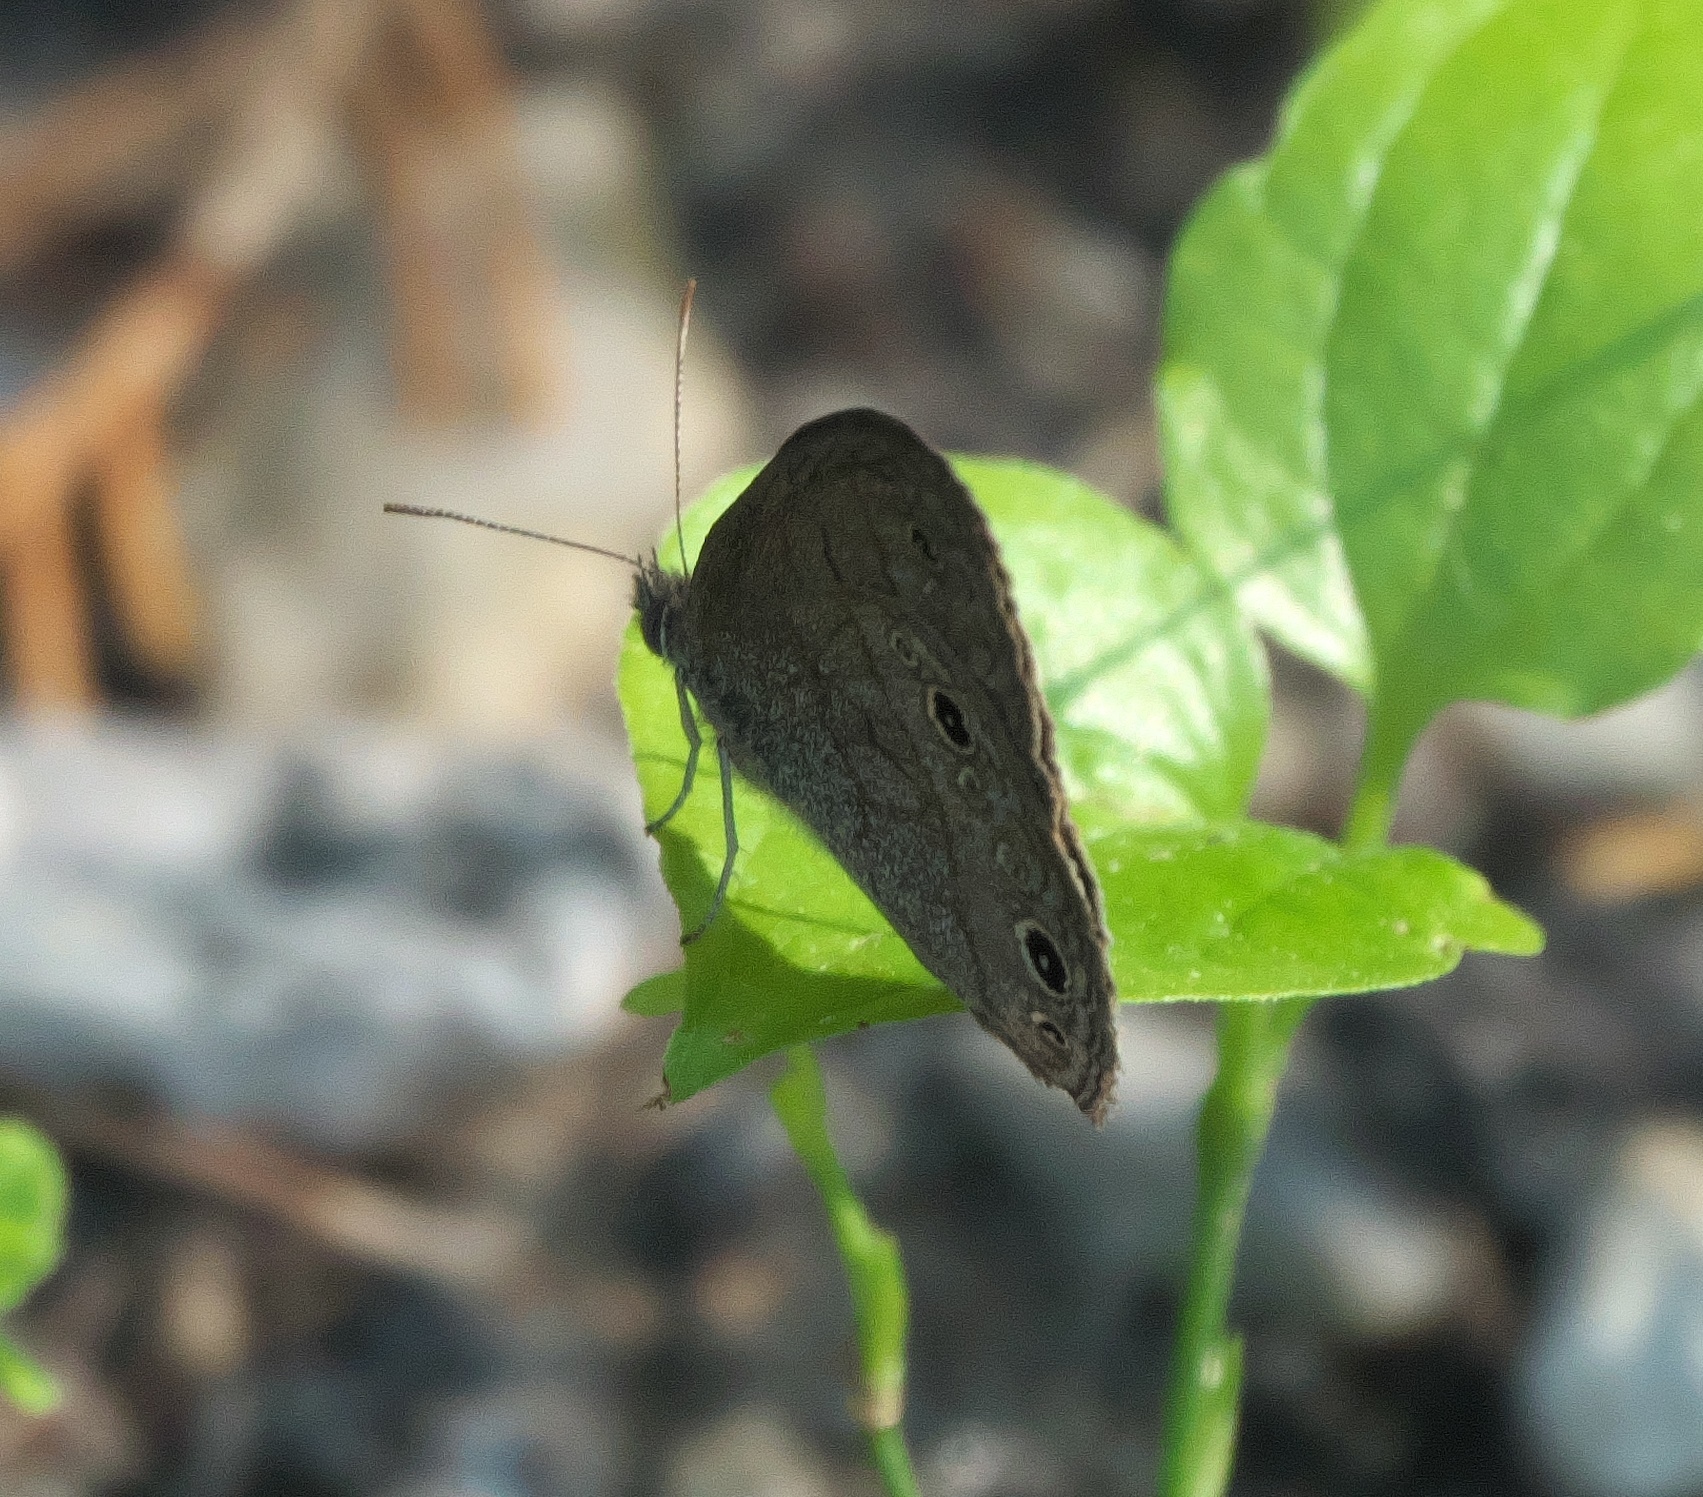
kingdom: Animalia
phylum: Arthropoda
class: Insecta
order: Lepidoptera
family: Nymphalidae
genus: Hermeuptychia
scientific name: Hermeuptychia hermes
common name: Hermes satyr
